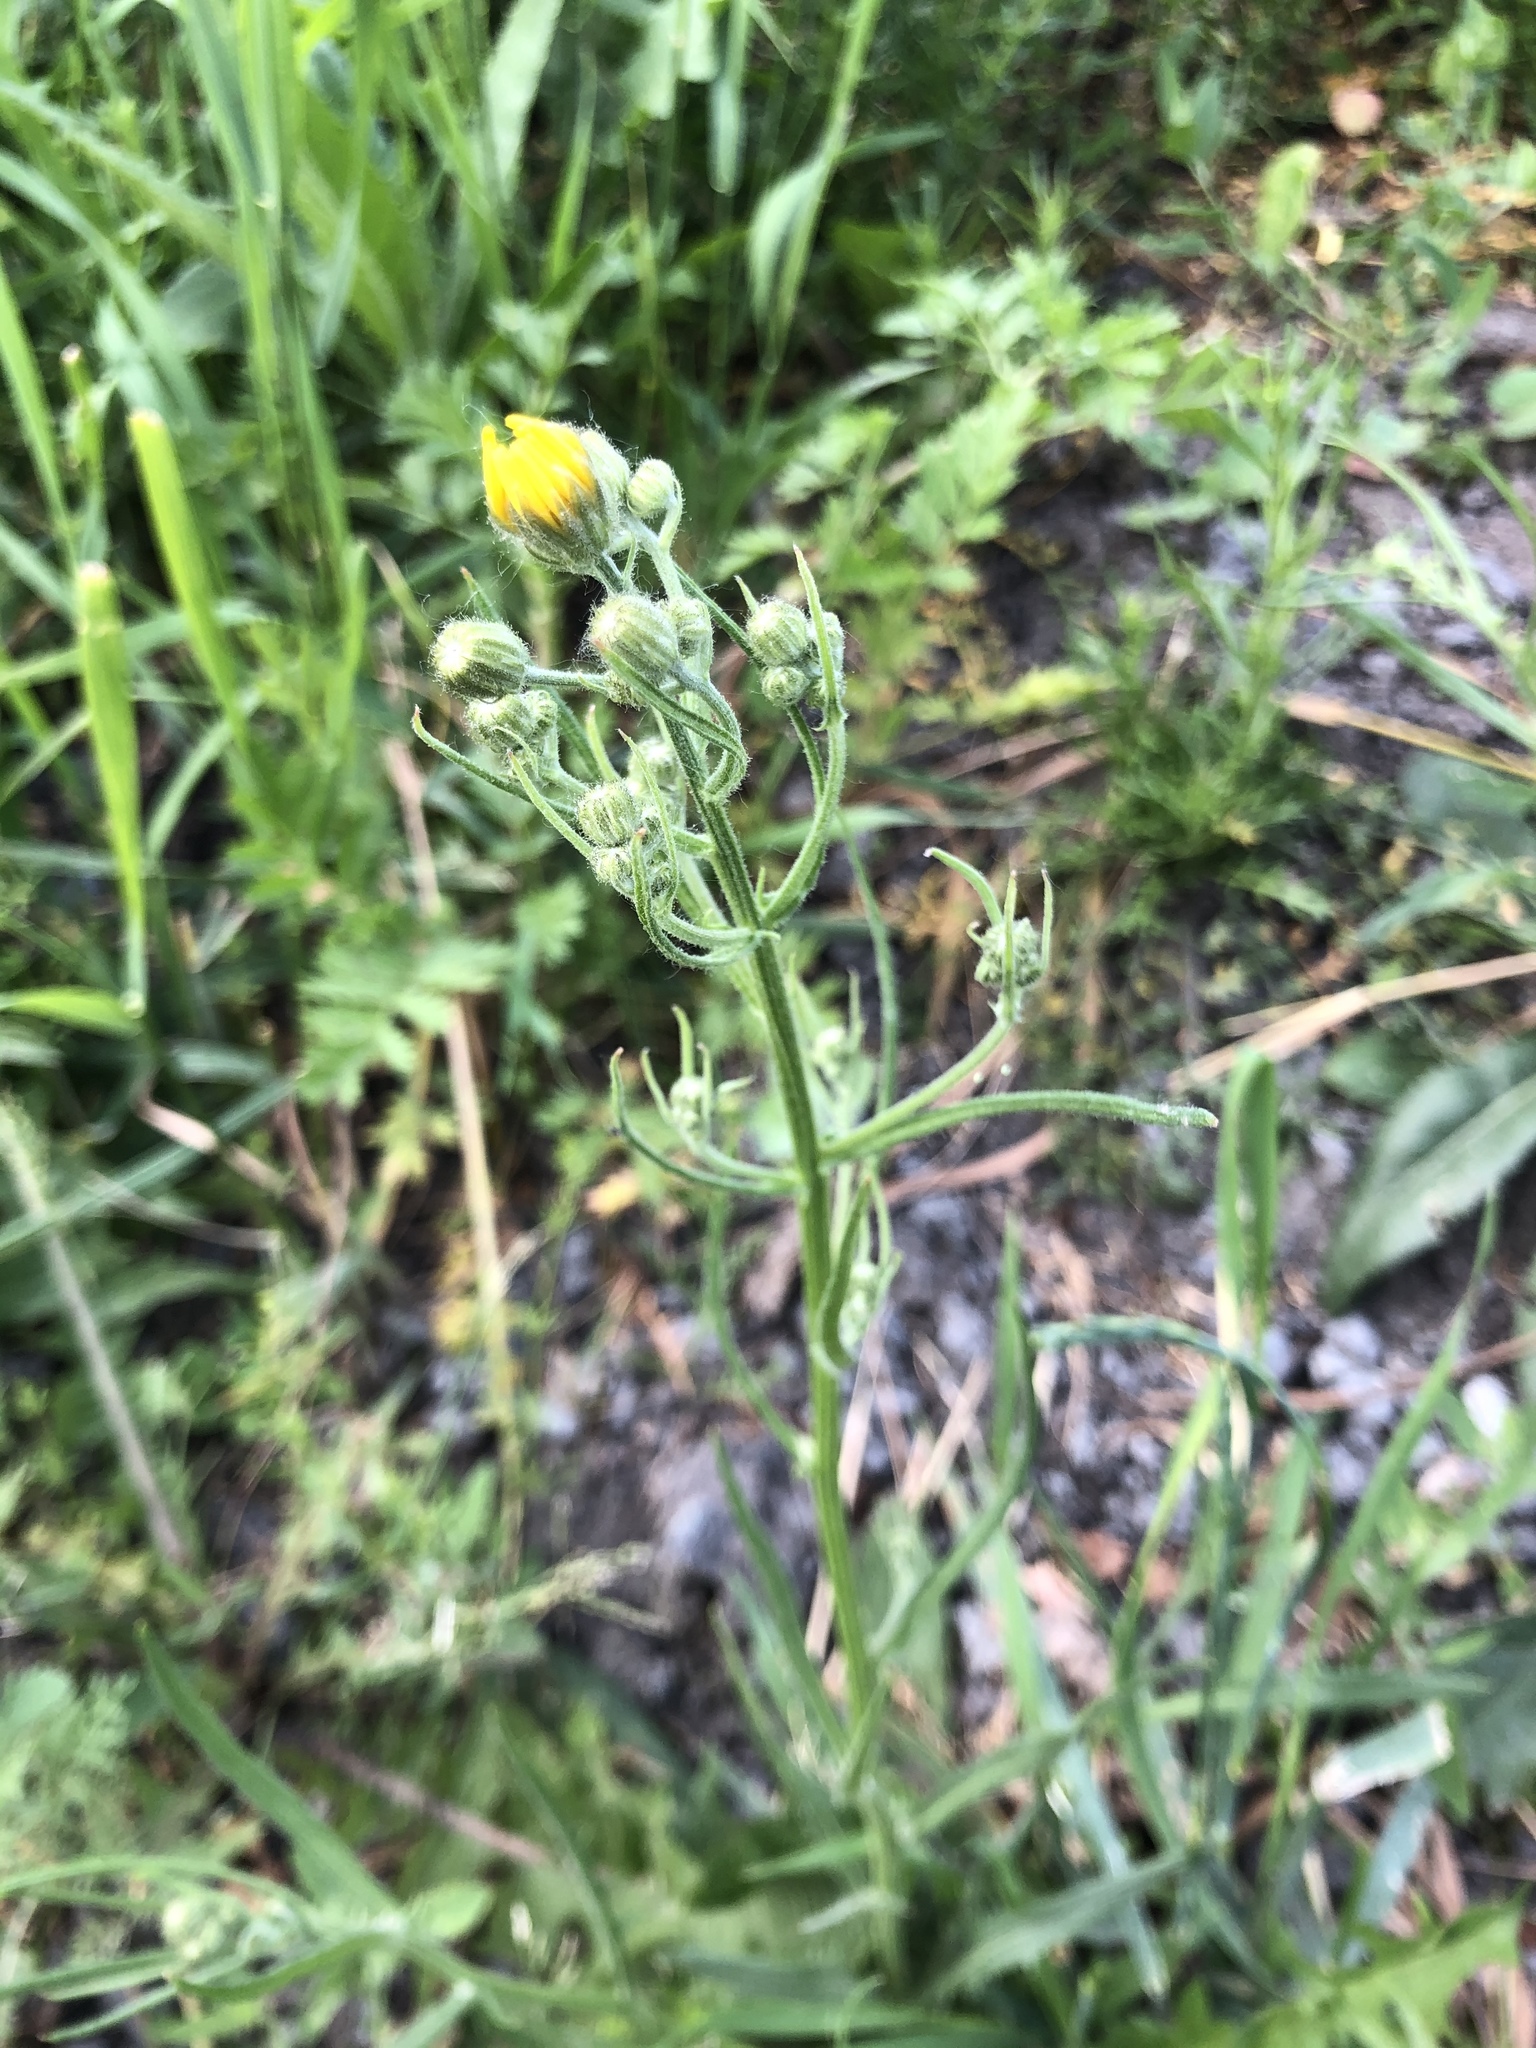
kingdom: Plantae
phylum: Tracheophyta
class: Magnoliopsida
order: Asterales
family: Asteraceae
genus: Crepis
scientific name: Crepis tectorum
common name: Narrow-leaved hawk's-beard
